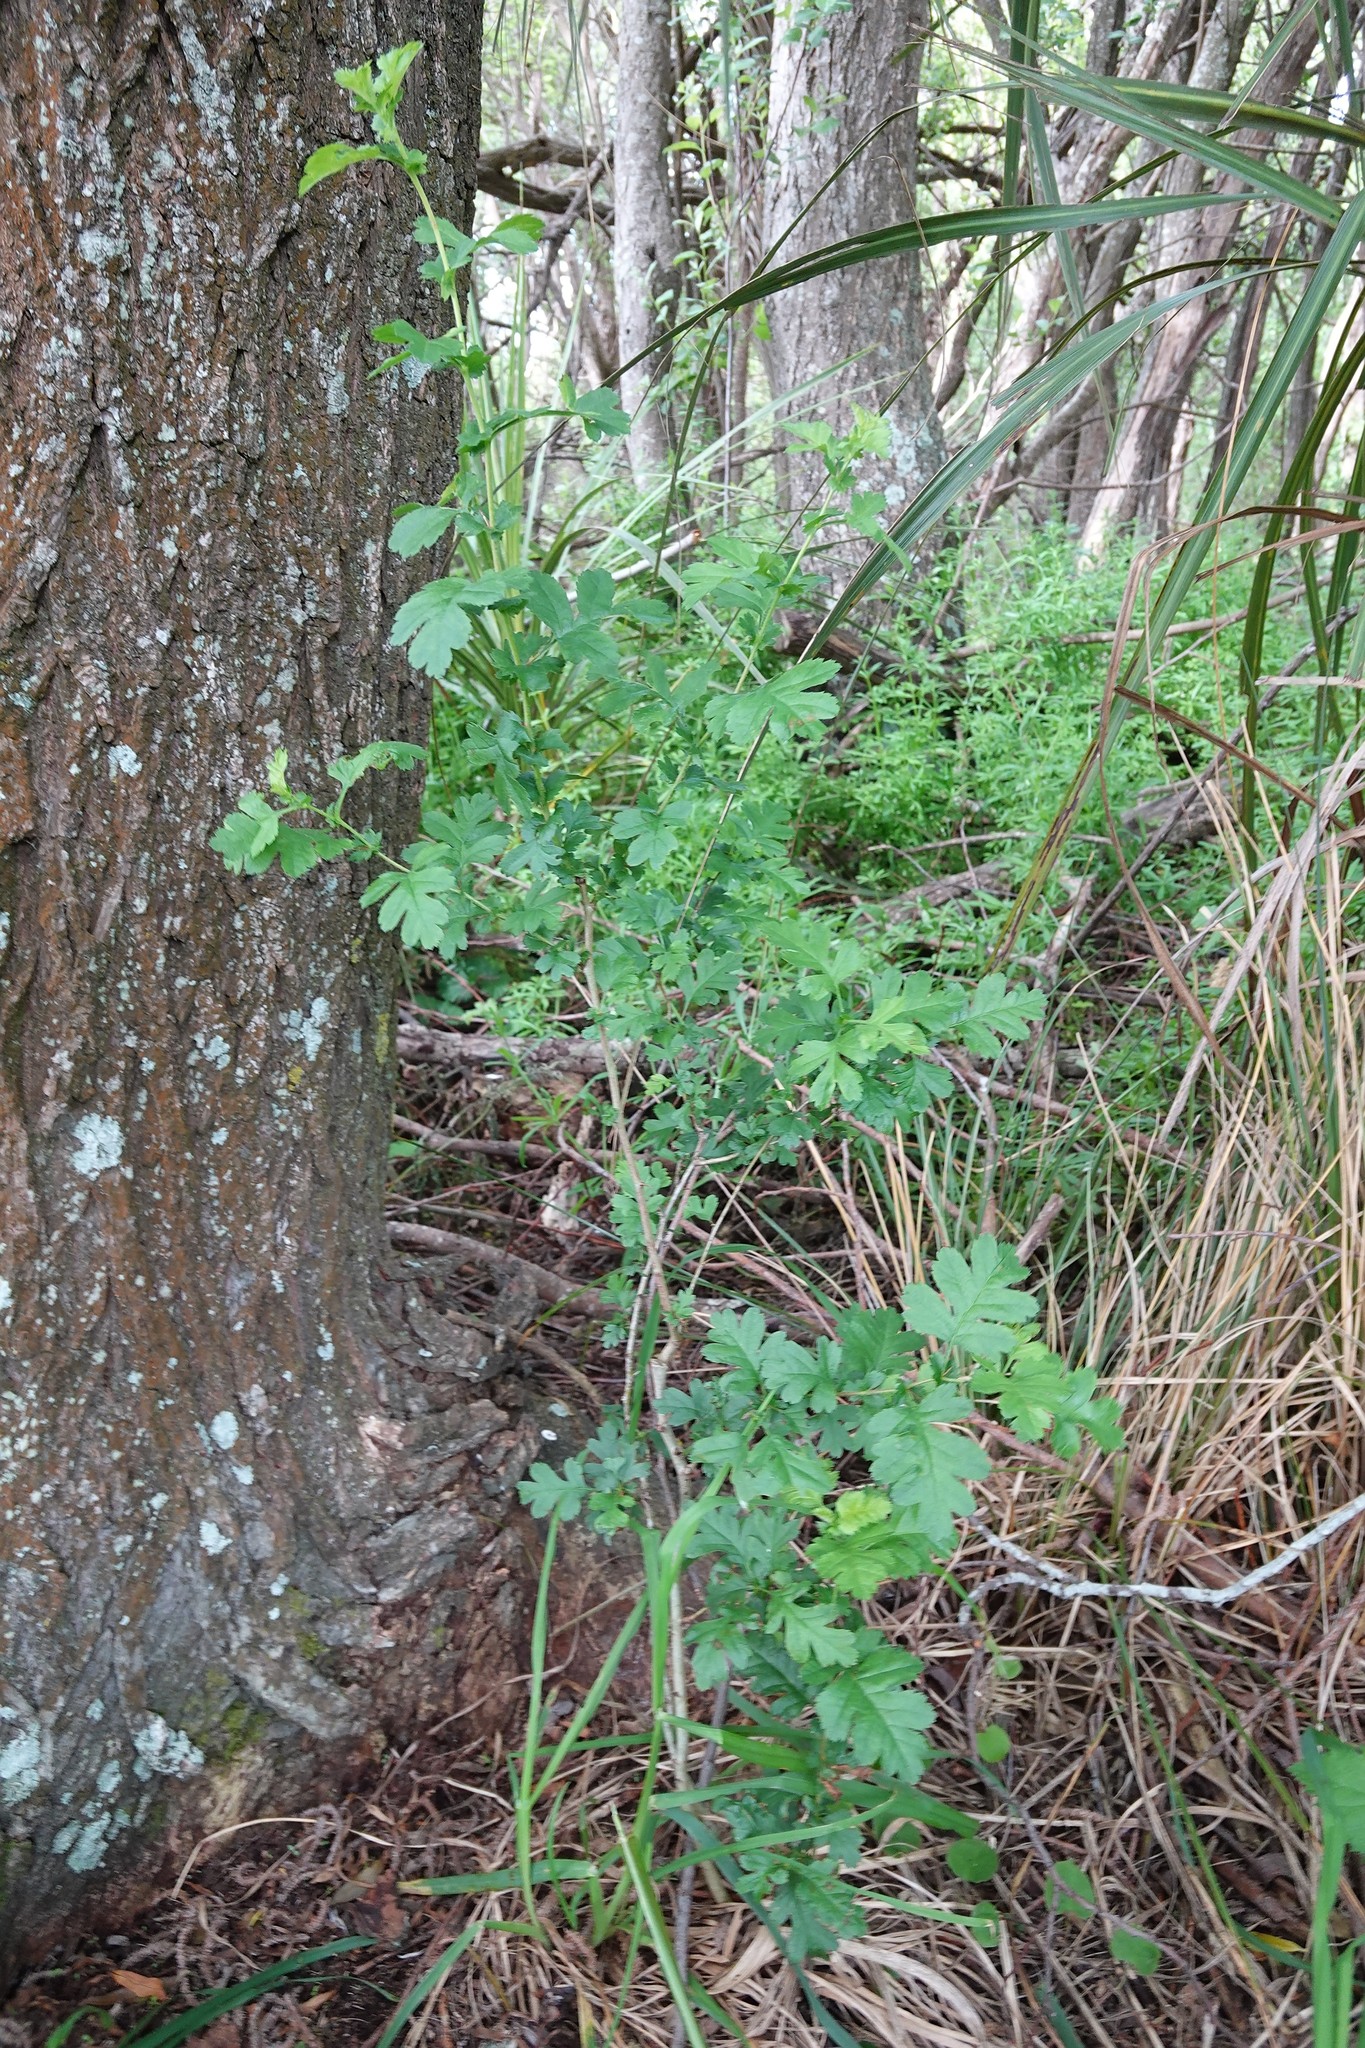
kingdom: Plantae
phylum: Tracheophyta
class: Magnoliopsida
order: Rosales
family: Rosaceae
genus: Crataegus
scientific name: Crataegus monogyna
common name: Hawthorn
